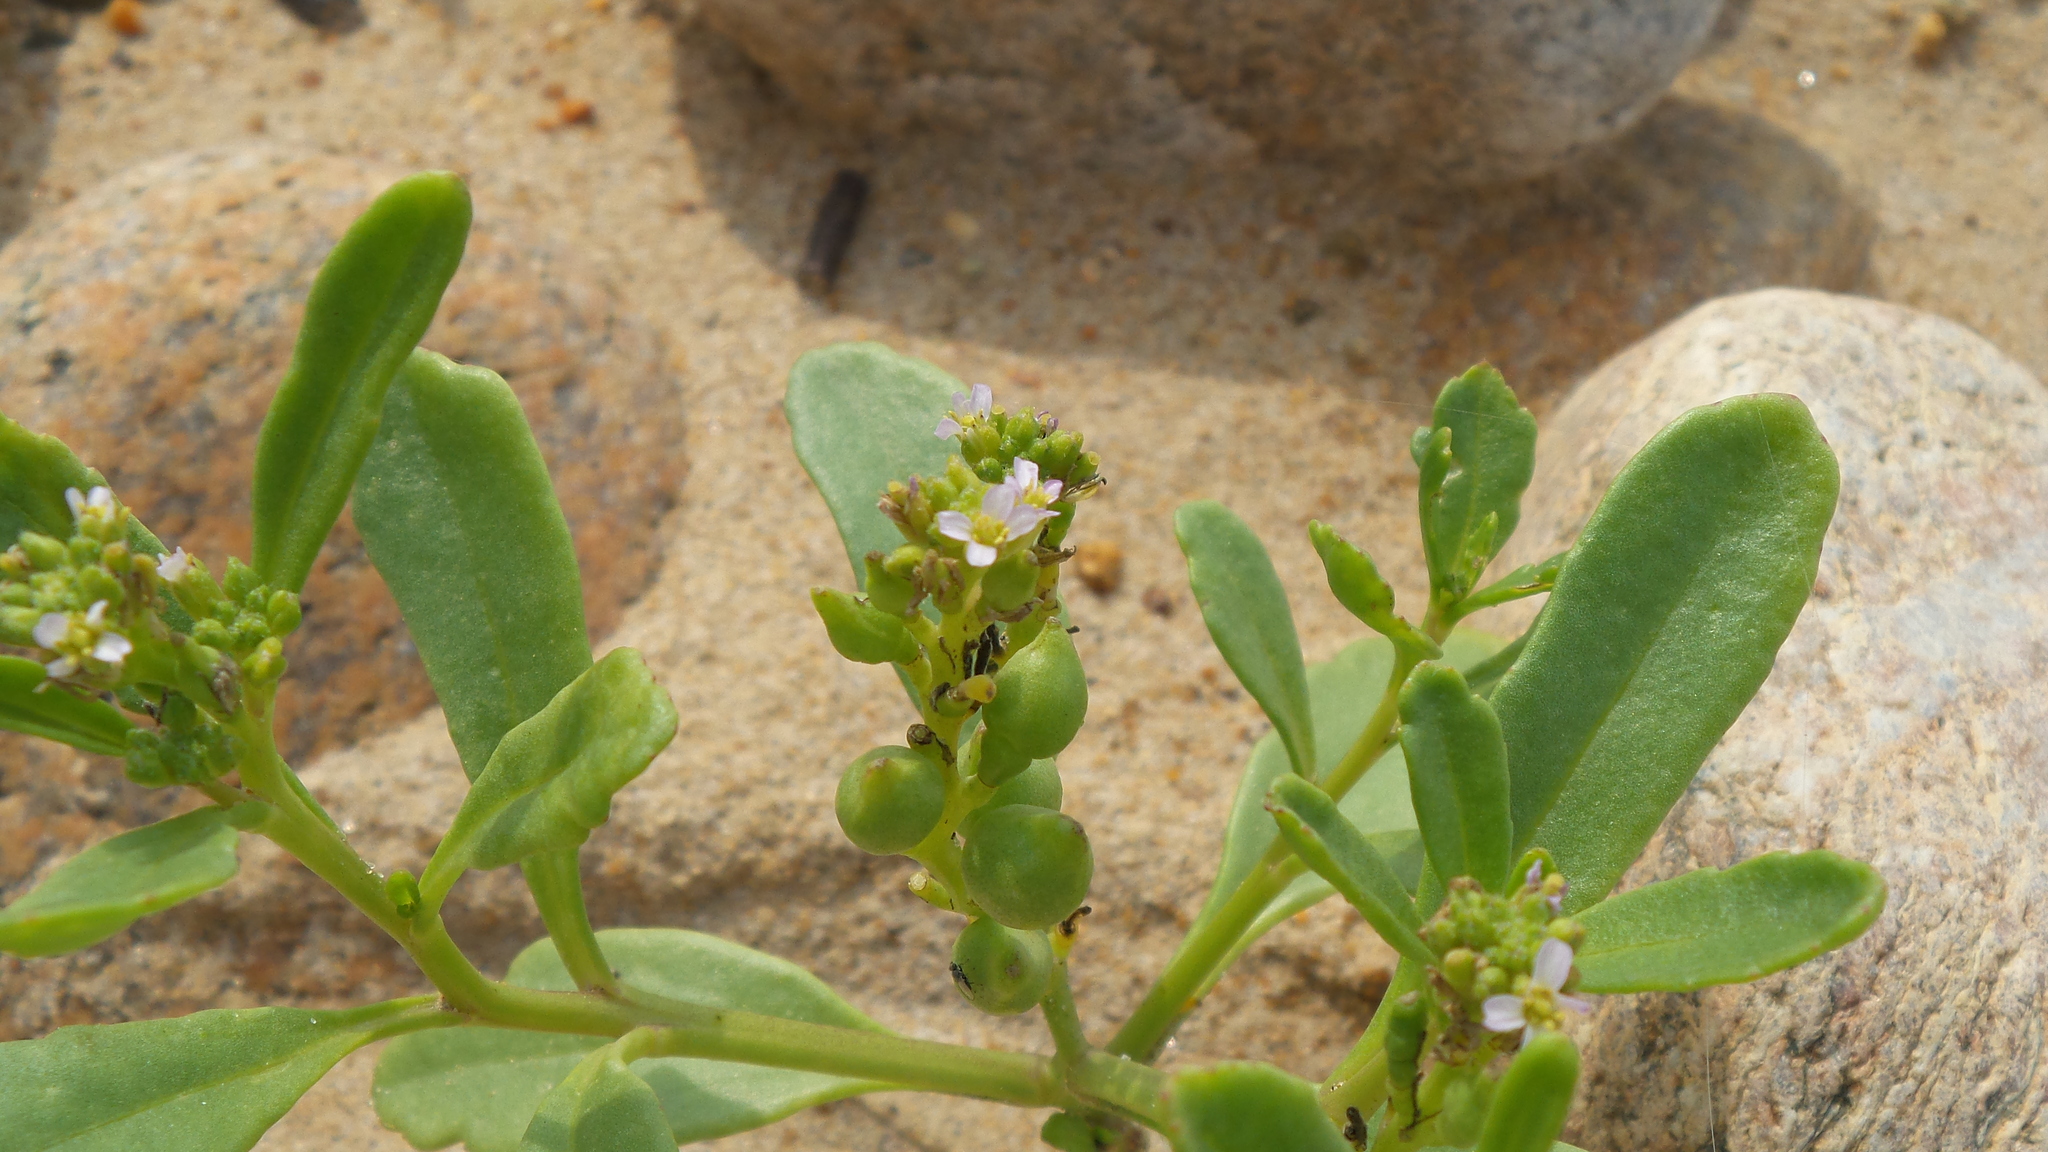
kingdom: Plantae
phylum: Tracheophyta
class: Magnoliopsida
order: Brassicales
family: Brassicaceae
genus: Cakile
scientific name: Cakile edentula
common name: American sea rocket
